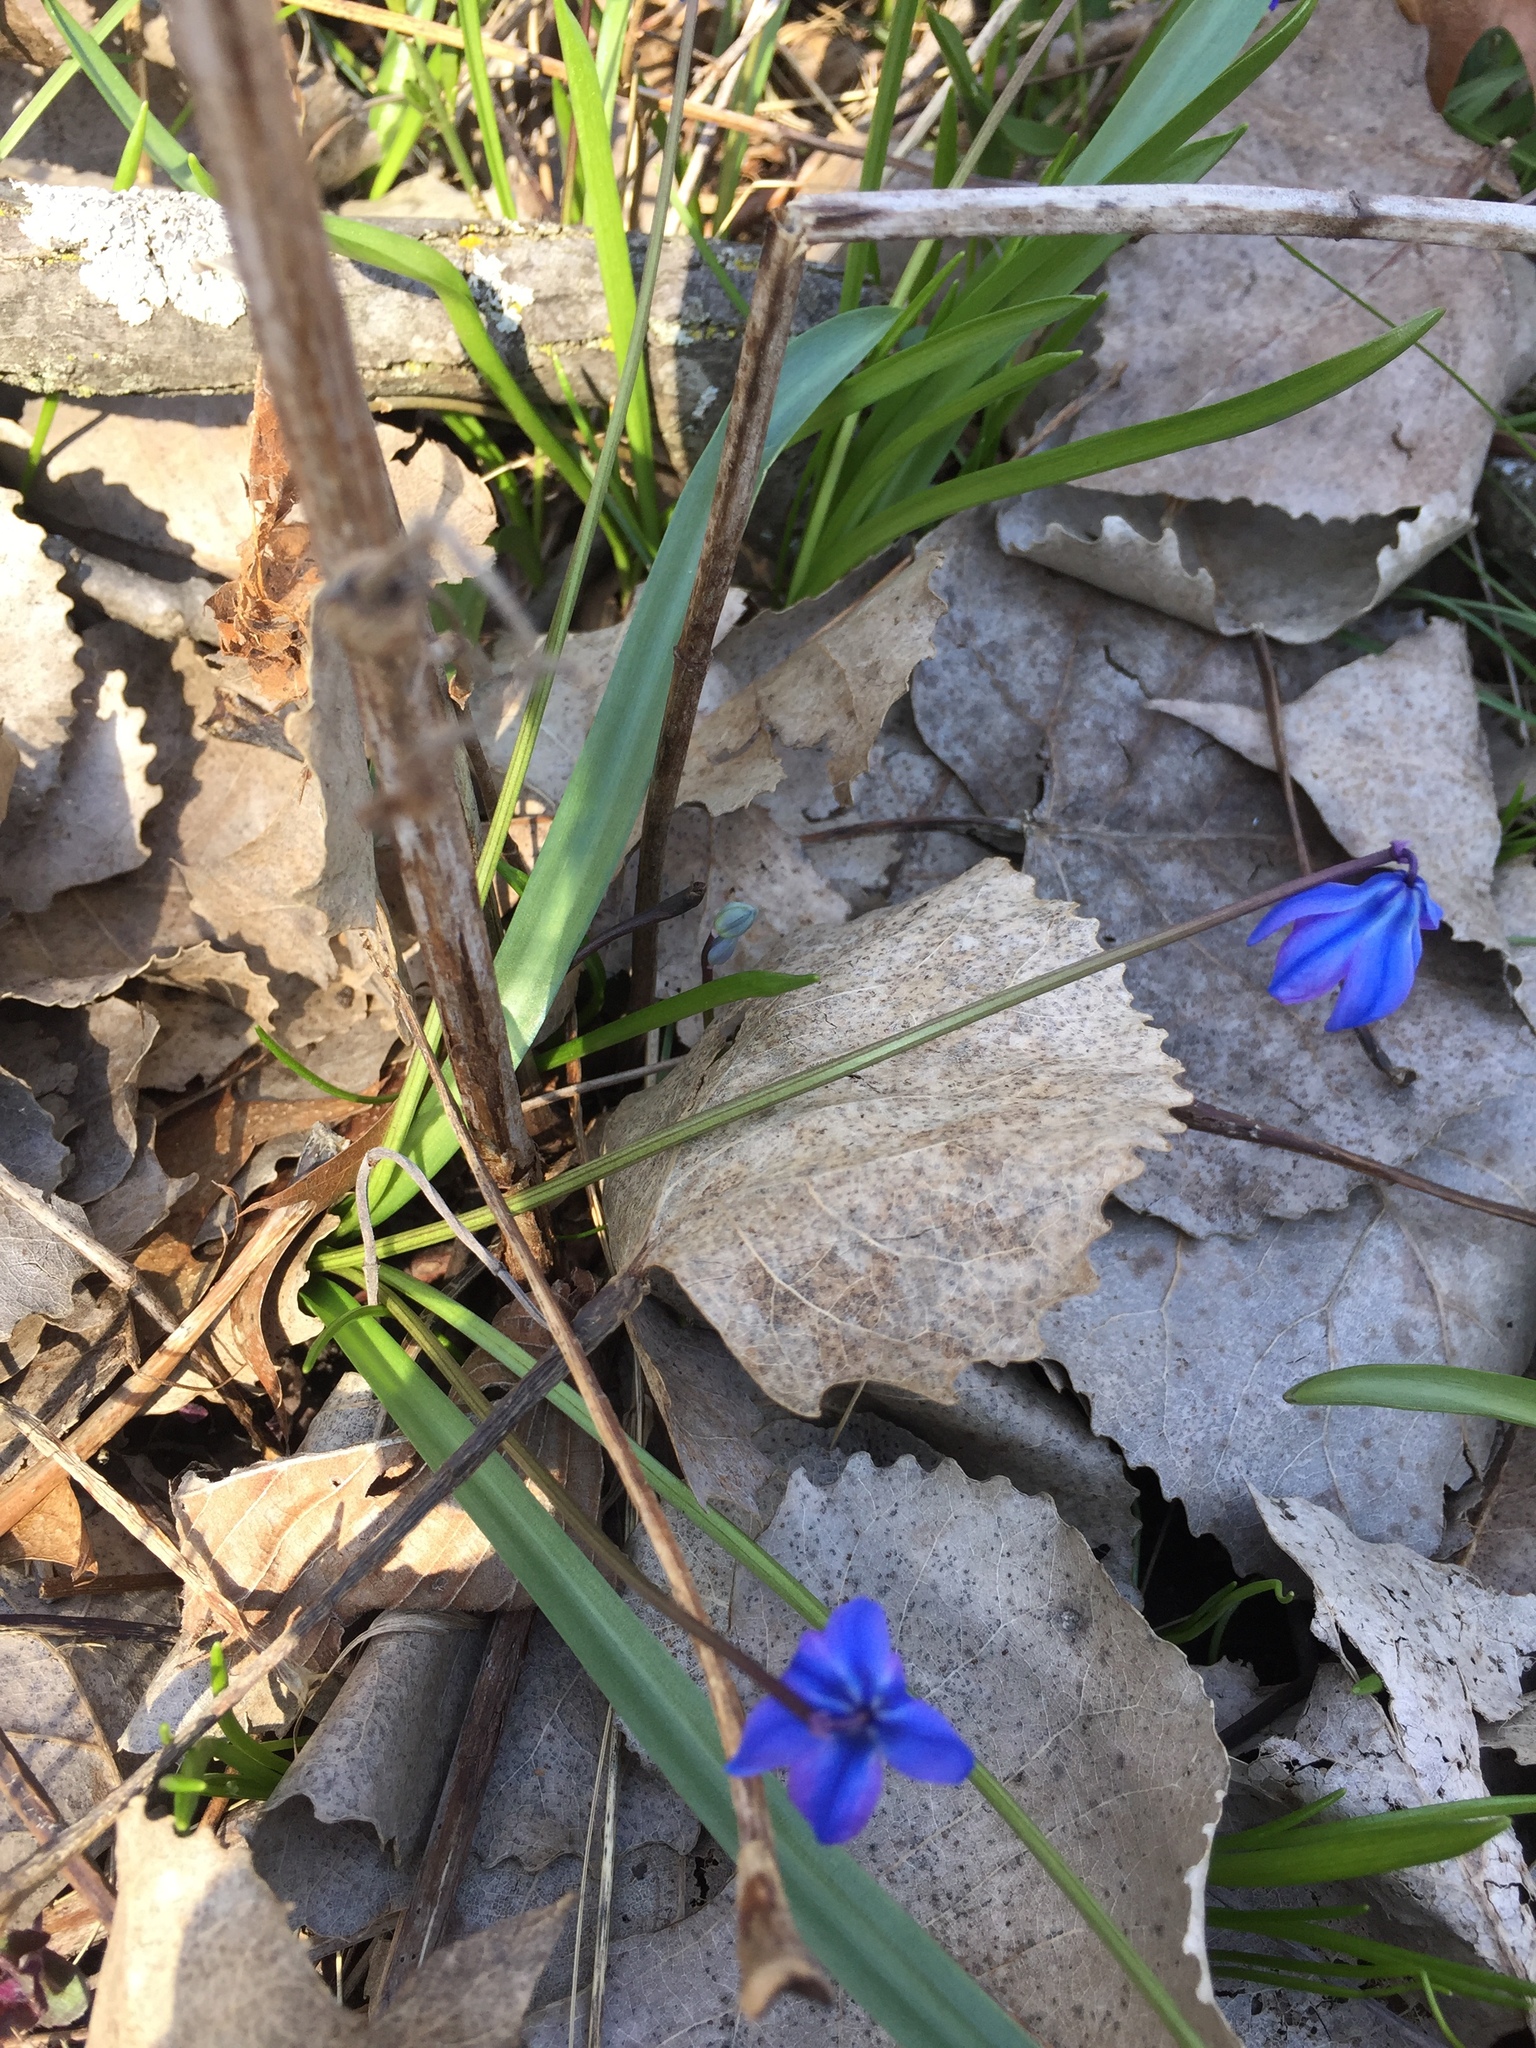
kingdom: Plantae
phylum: Tracheophyta
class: Liliopsida
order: Asparagales
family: Asparagaceae
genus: Scilla
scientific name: Scilla siberica
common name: Siberian squill
